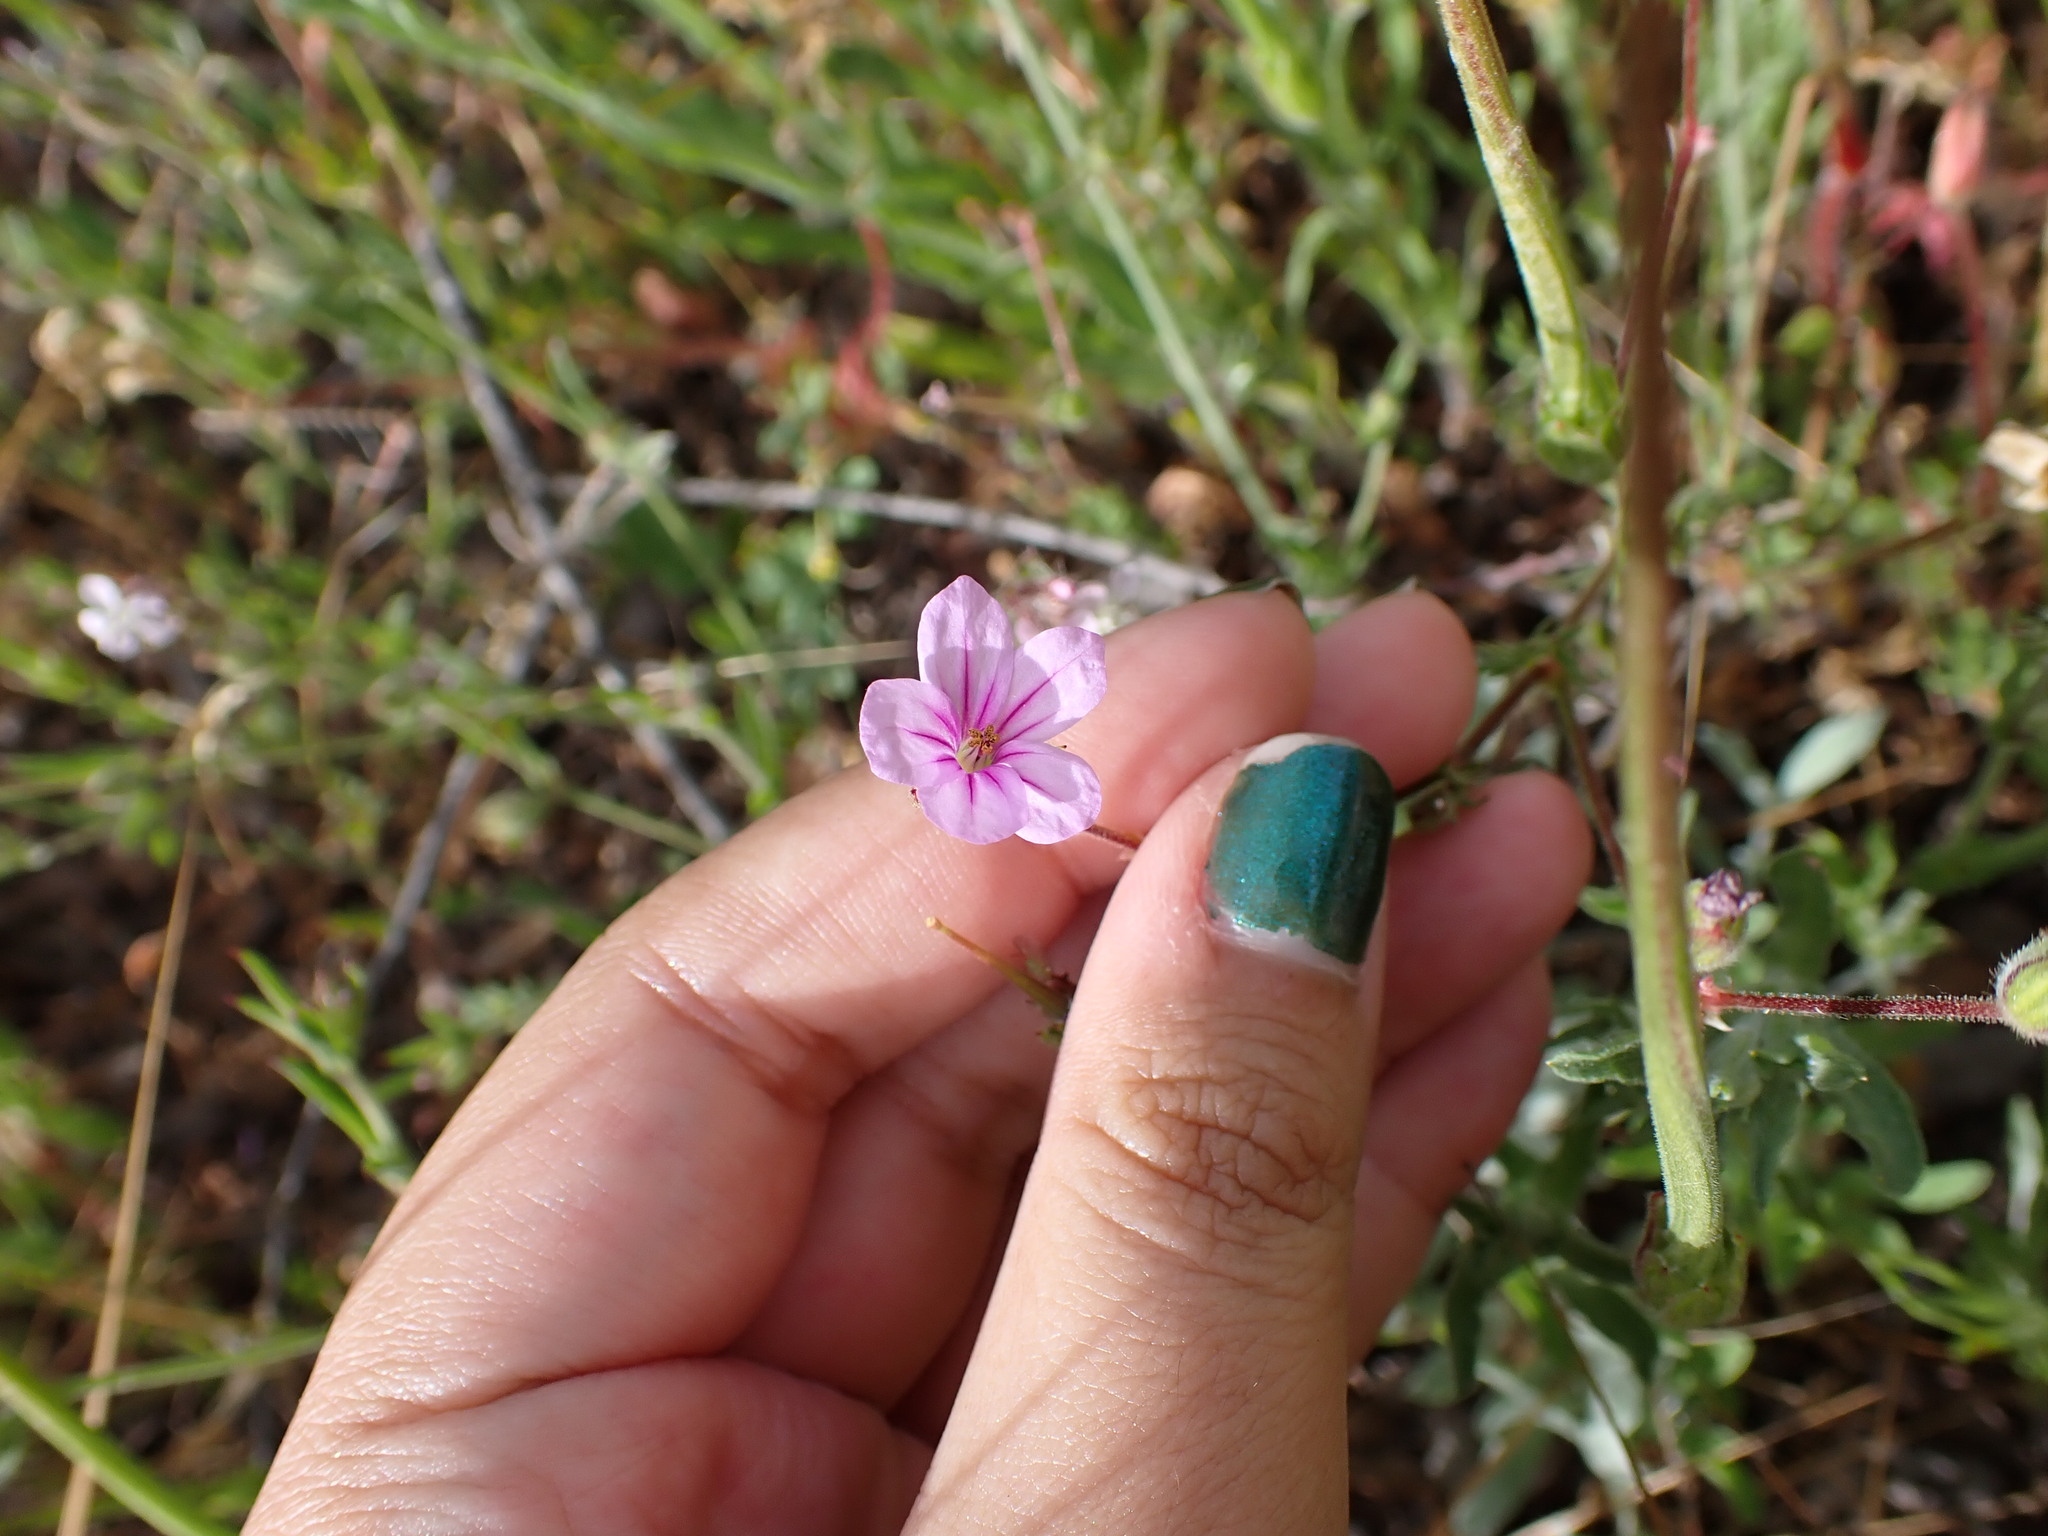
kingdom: Plantae
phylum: Tracheophyta
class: Magnoliopsida
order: Geraniales
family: Geraniaceae
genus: Erodium
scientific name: Erodium botrys
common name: Mediterranean stork's-bill
